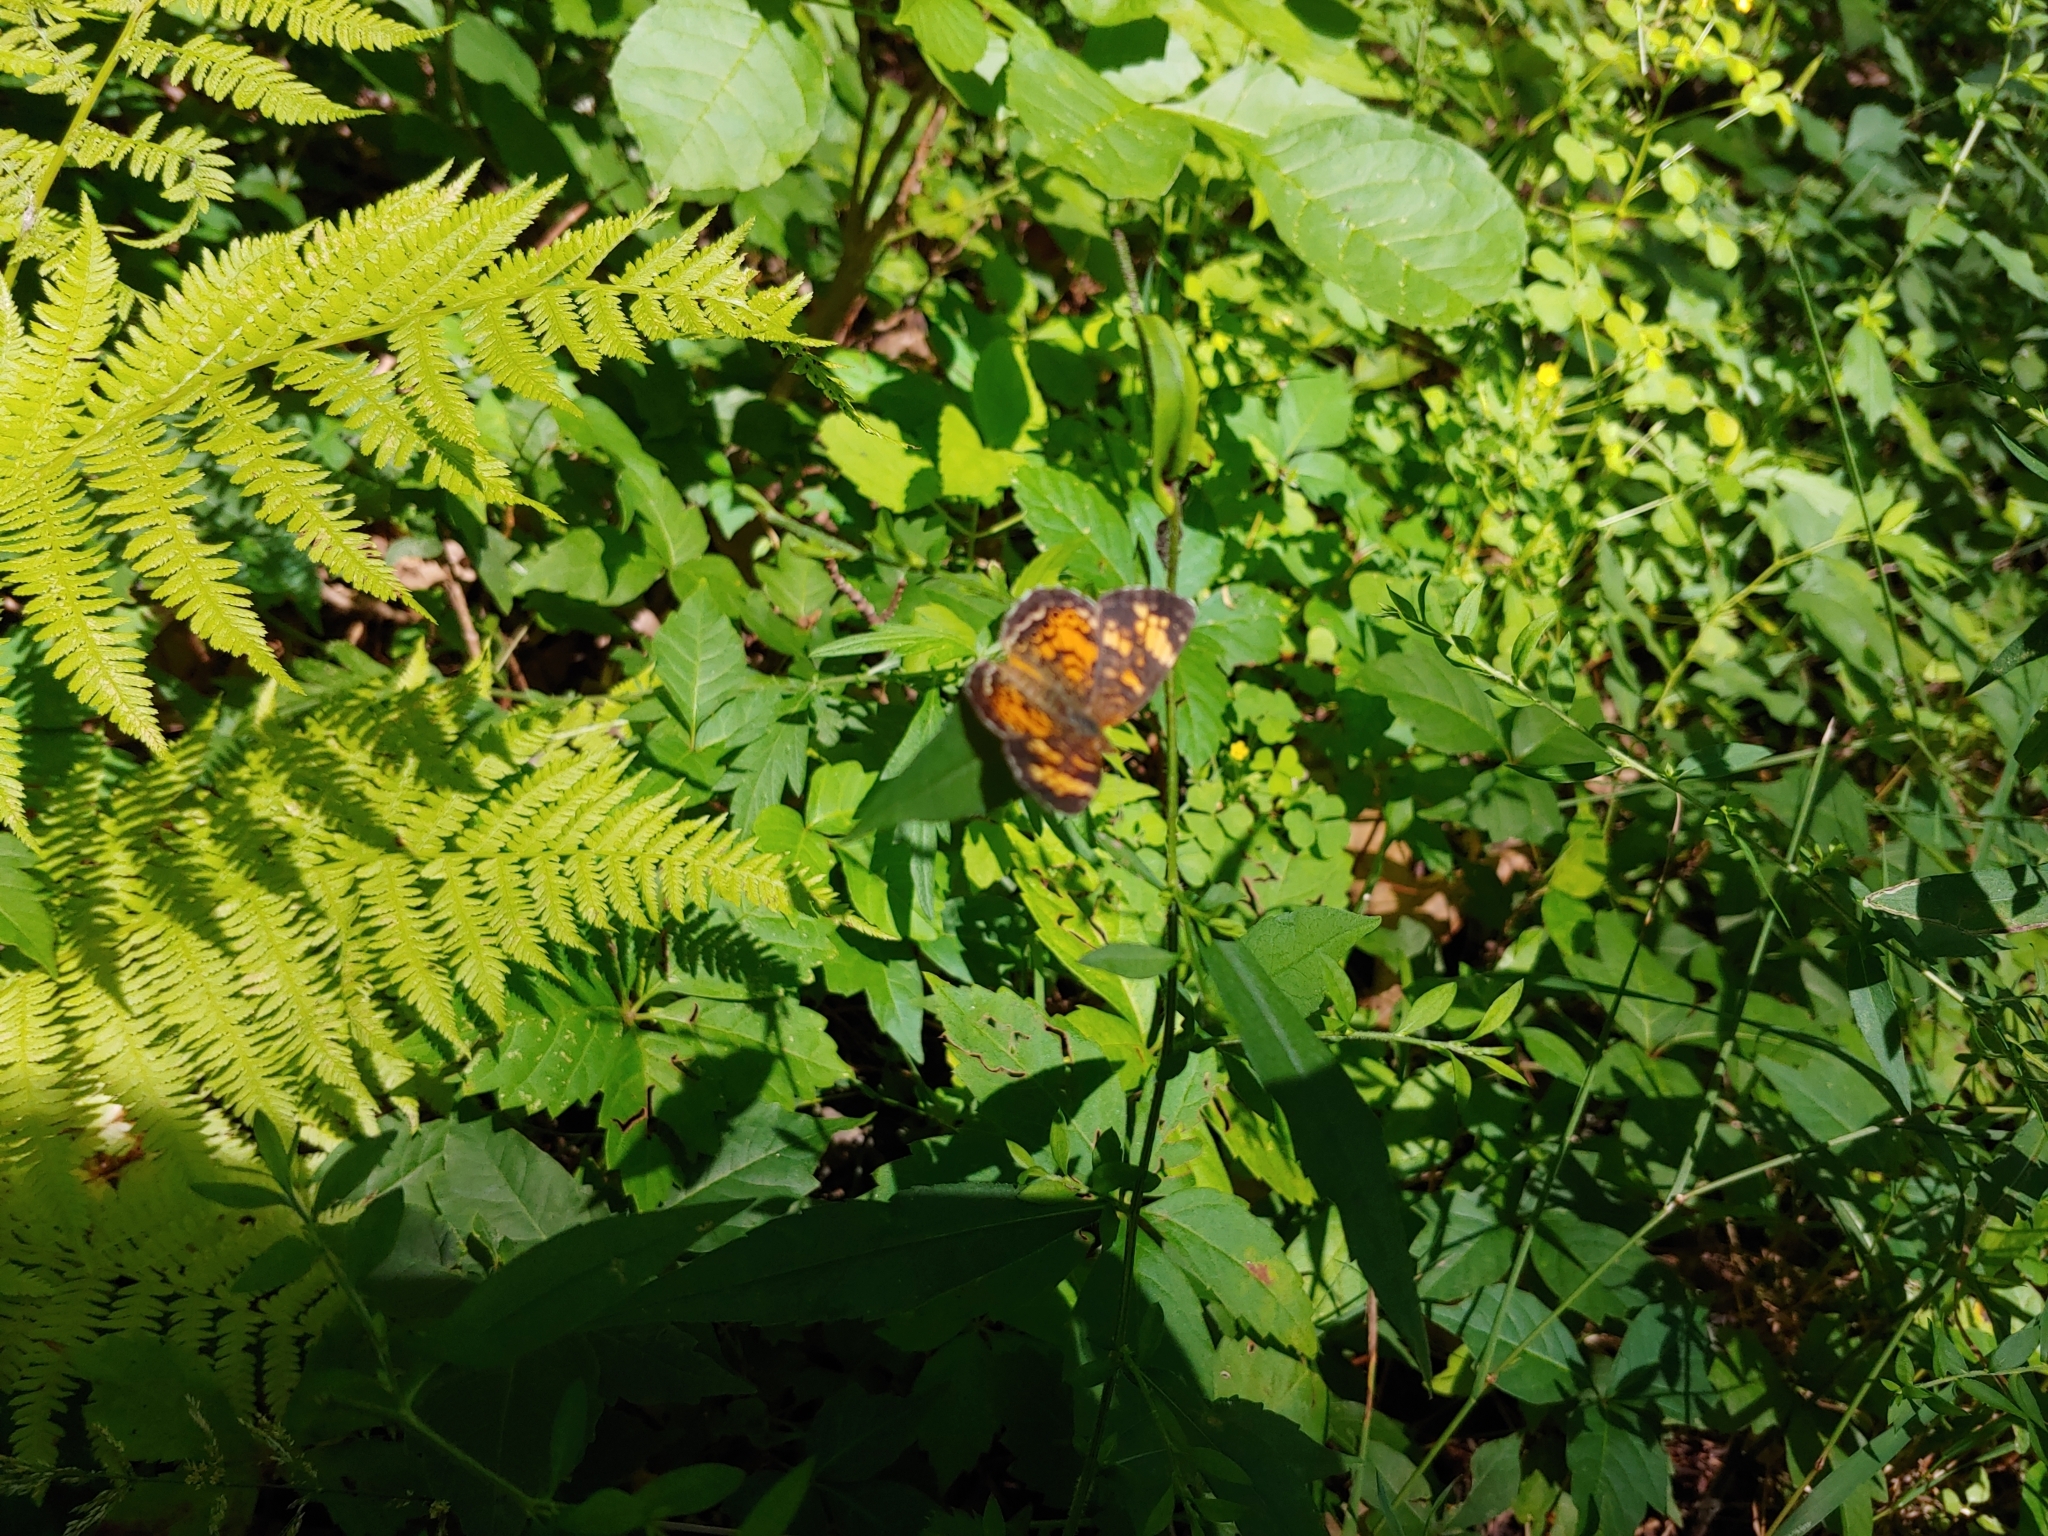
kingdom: Animalia
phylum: Arthropoda
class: Insecta
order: Lepidoptera
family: Nymphalidae
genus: Phyciodes
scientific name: Phyciodes tharos
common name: Pearl crescent
